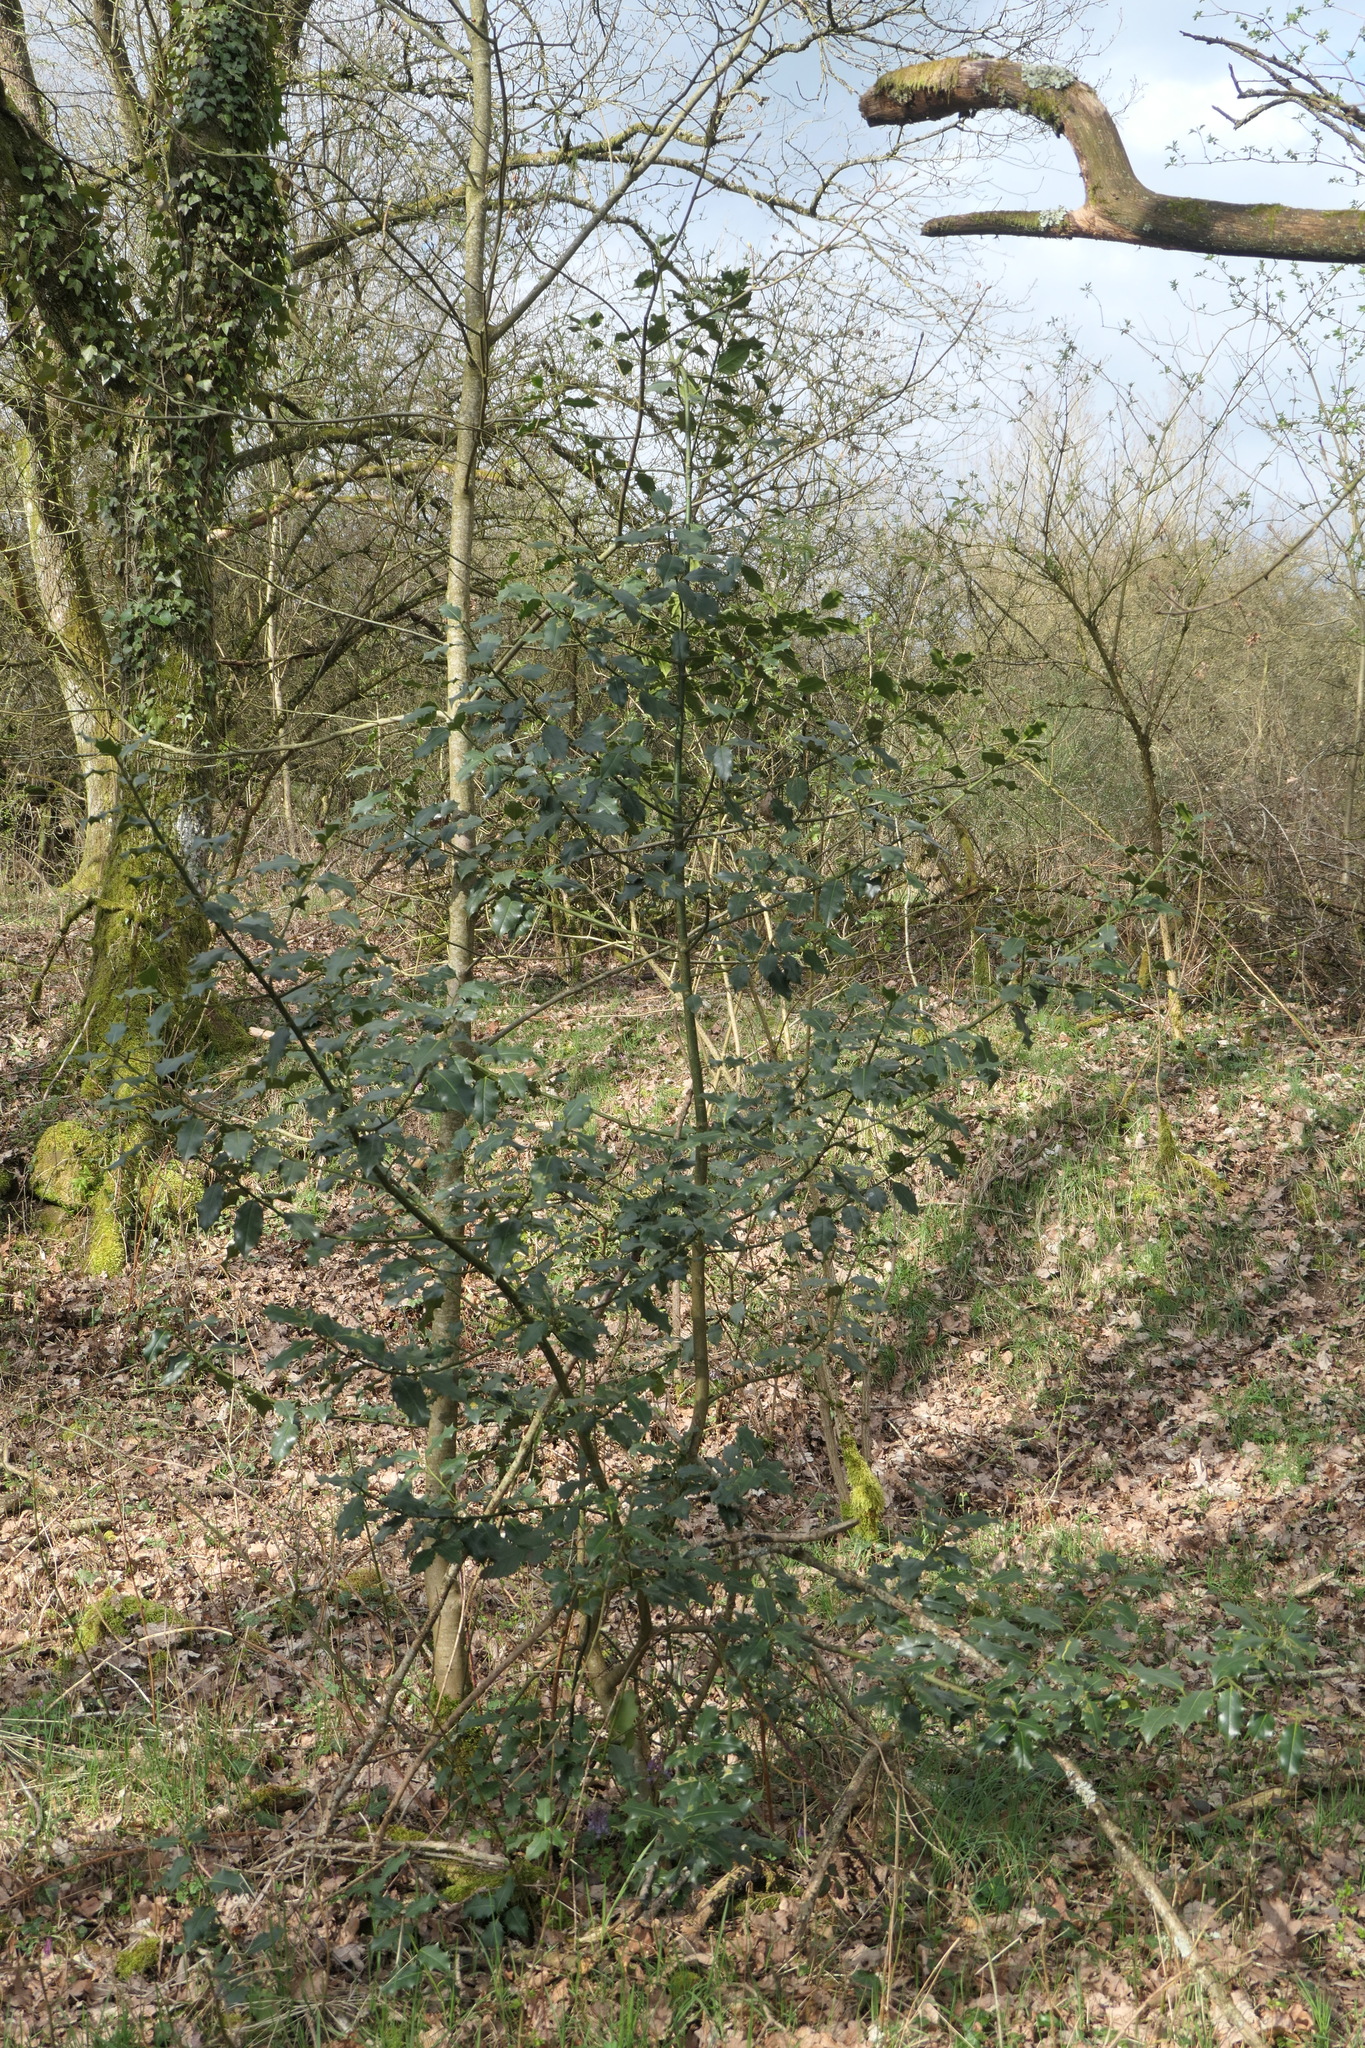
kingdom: Plantae
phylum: Tracheophyta
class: Magnoliopsida
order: Aquifoliales
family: Aquifoliaceae
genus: Ilex
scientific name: Ilex aquifolium
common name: English holly
